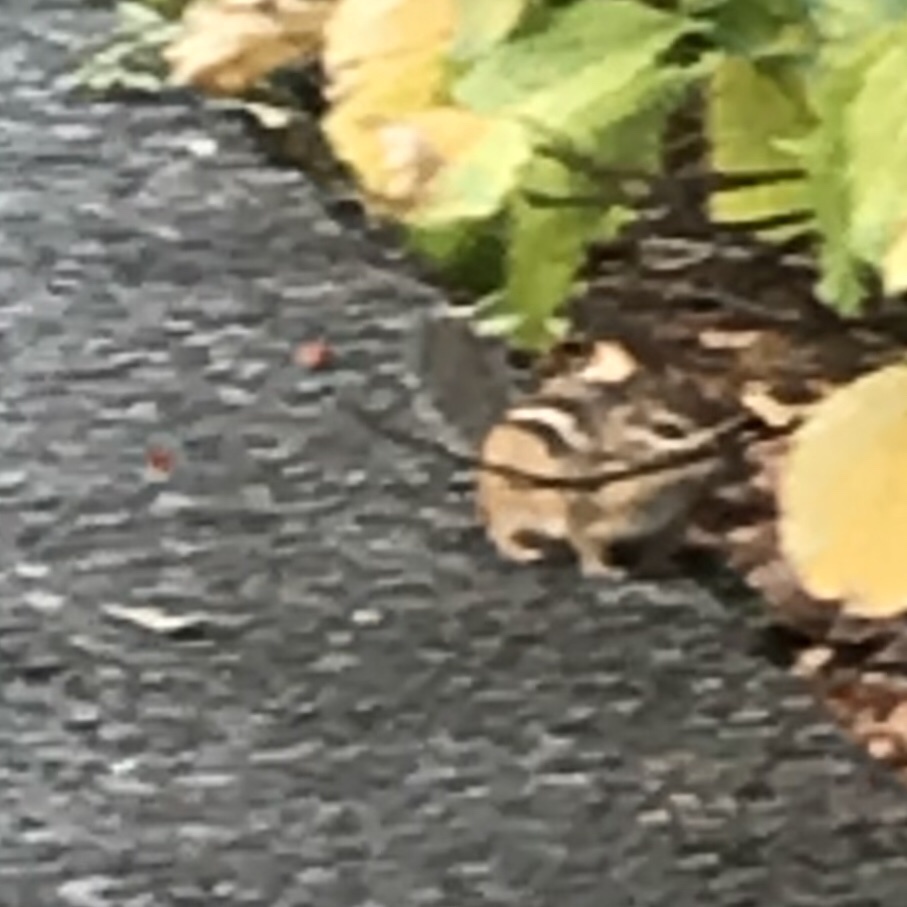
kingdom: Animalia
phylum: Chordata
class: Mammalia
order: Rodentia
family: Sciuridae
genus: Tamias
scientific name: Tamias striatus
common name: Eastern chipmunk
